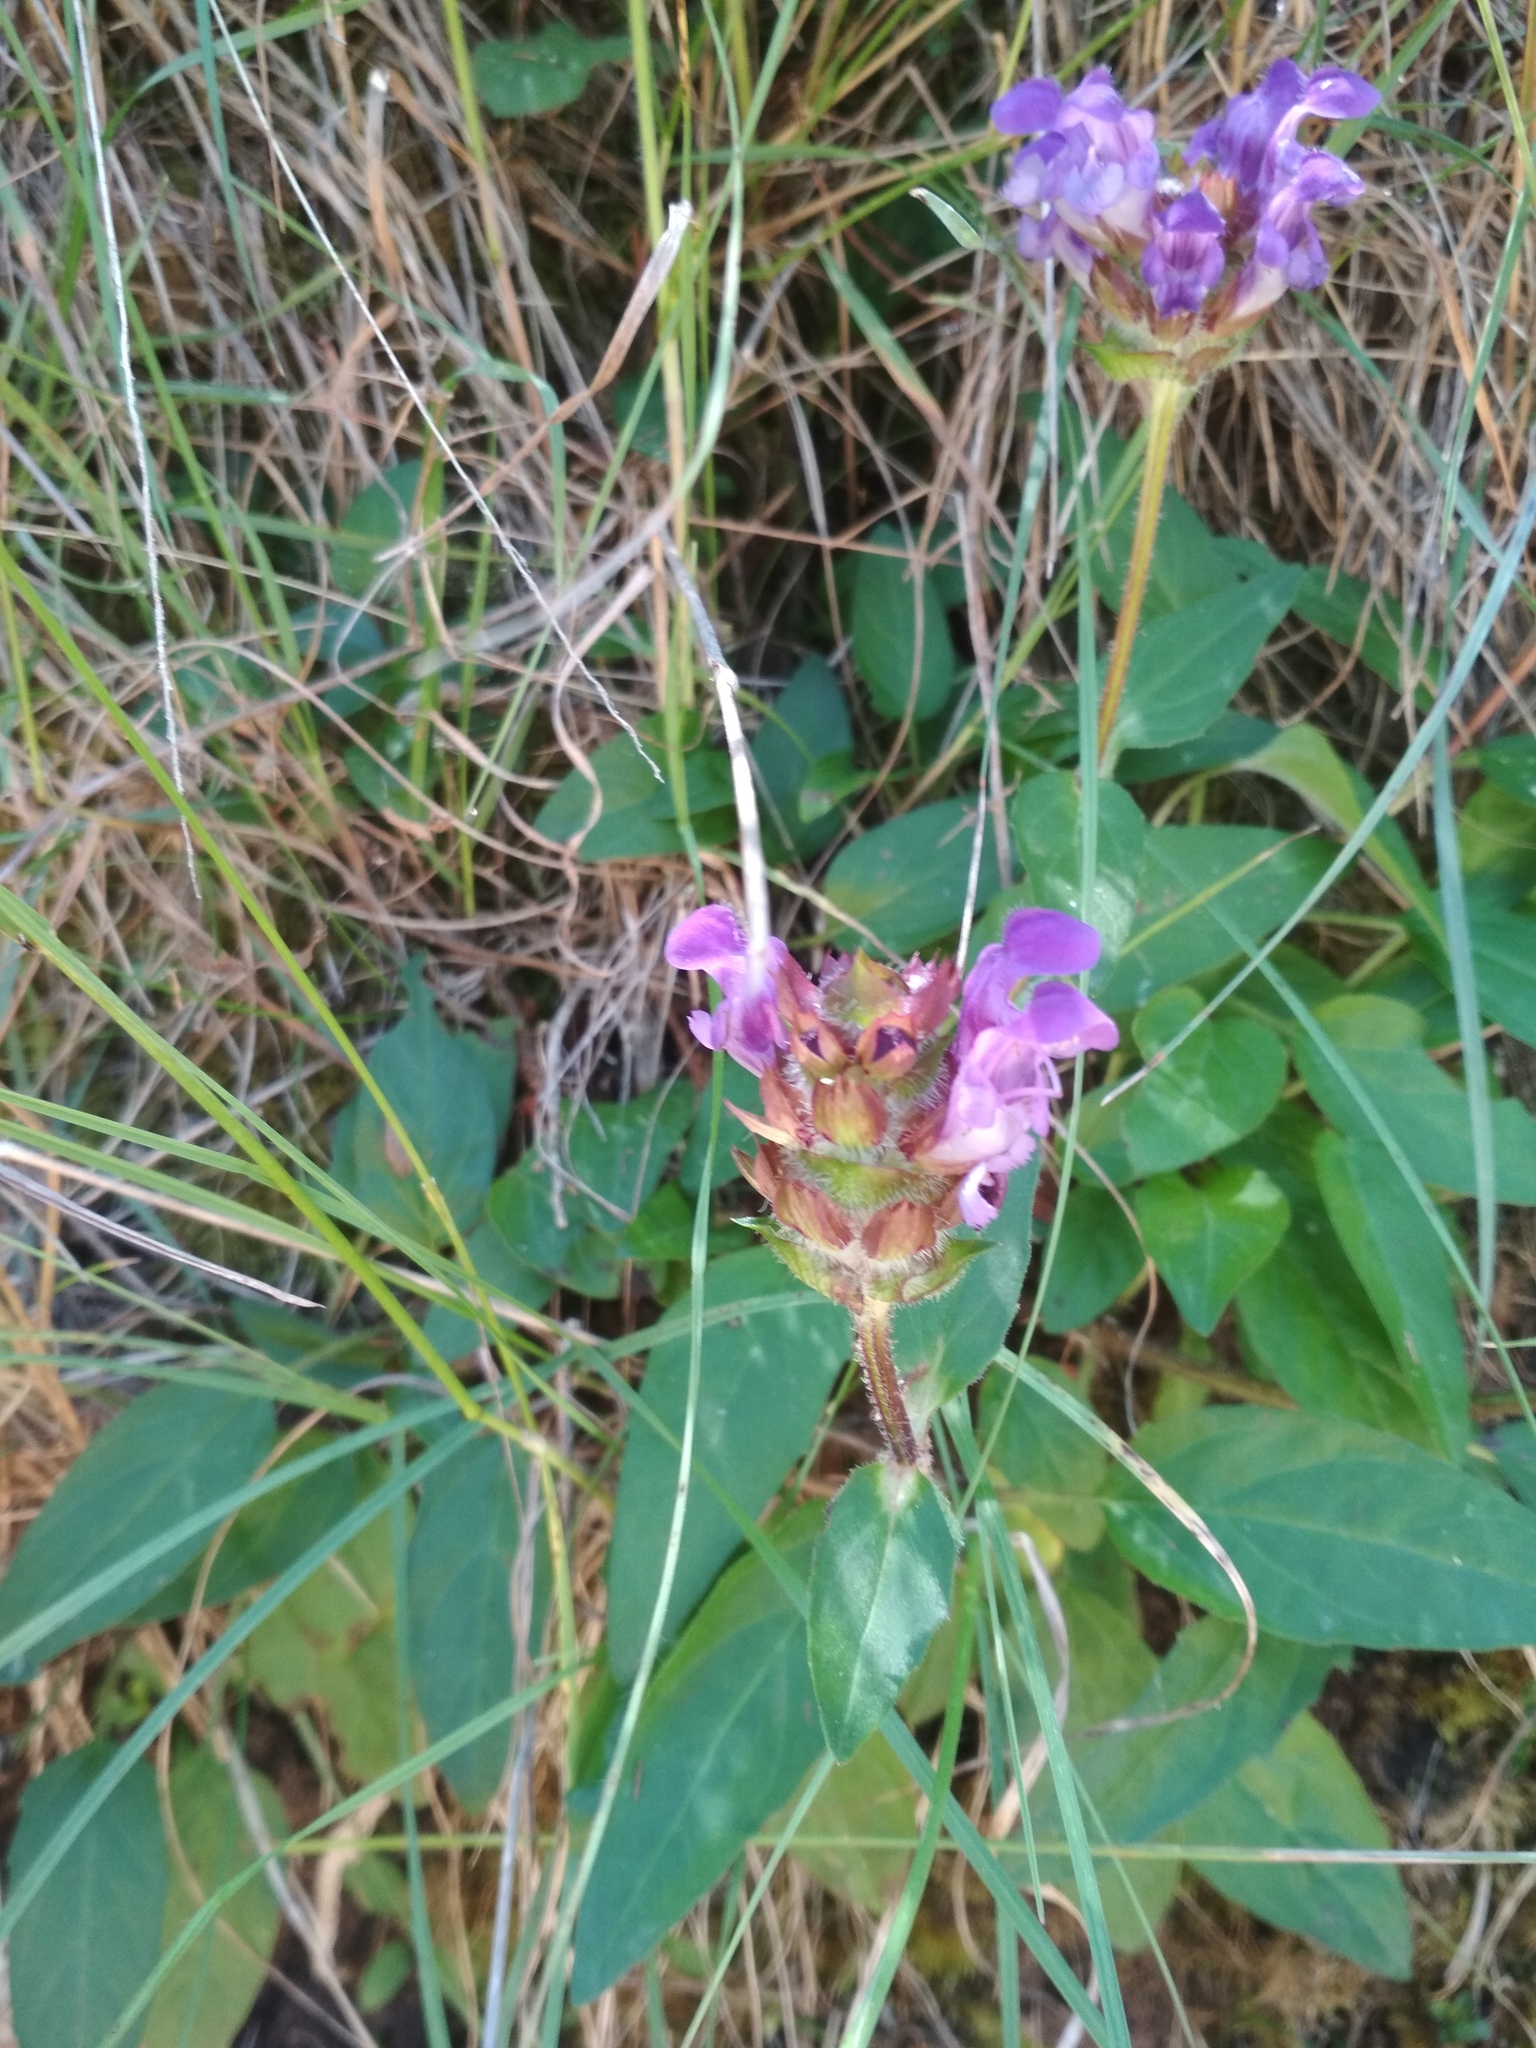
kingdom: Plantae
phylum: Tracheophyta
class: Magnoliopsida
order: Lamiales
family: Lamiaceae
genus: Prunella
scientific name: Prunella grandiflora
